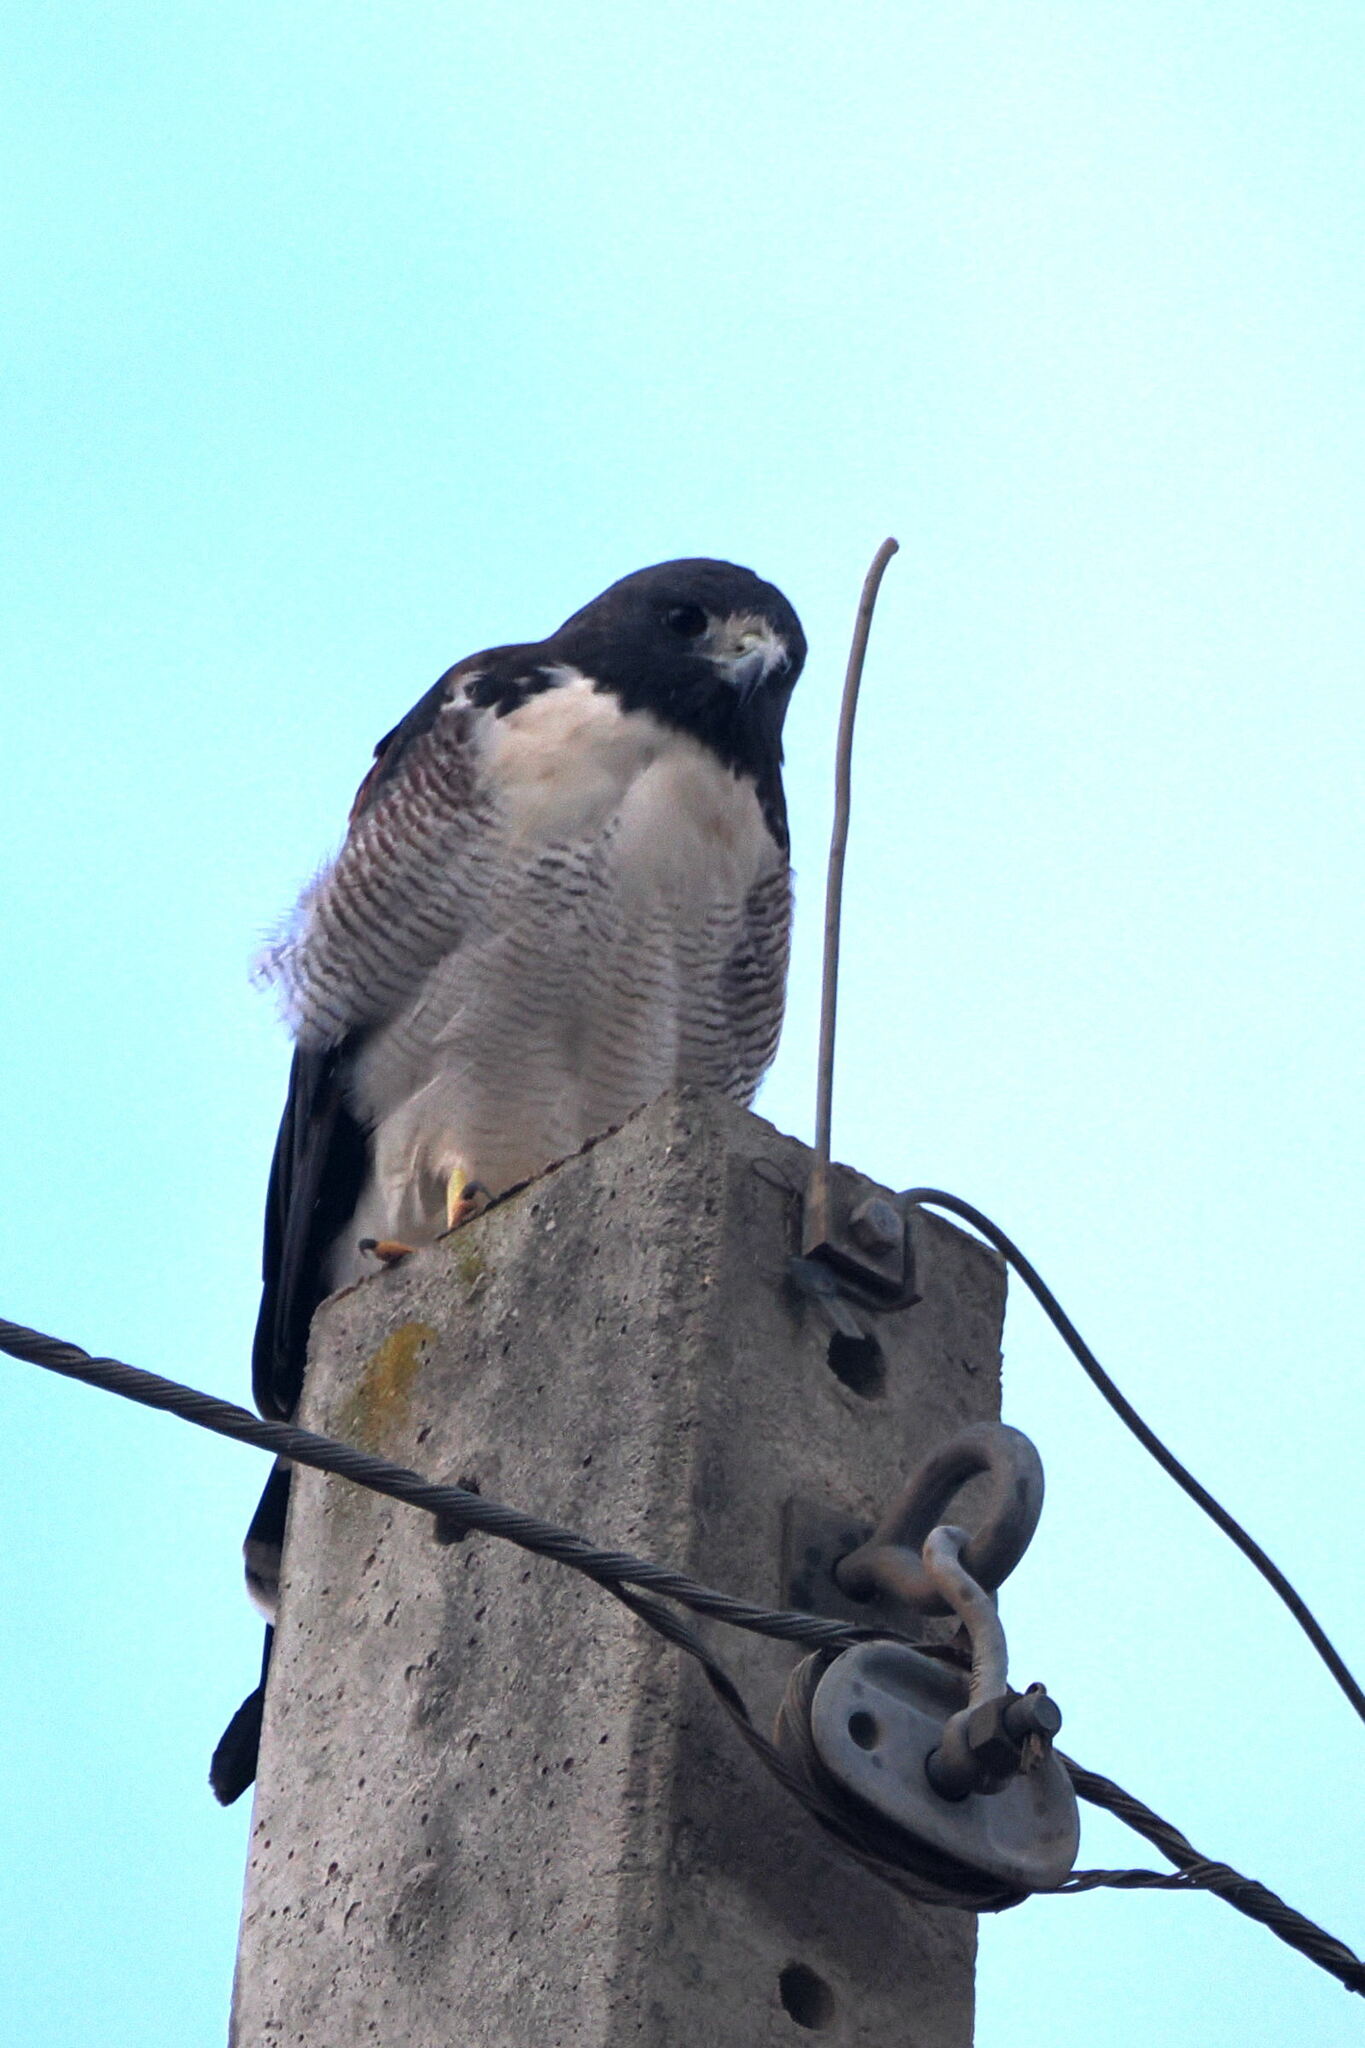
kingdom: Animalia
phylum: Chordata
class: Aves
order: Accipitriformes
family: Accipitridae
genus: Buteo
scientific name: Buteo albicaudatus
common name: White-tailed hawk
